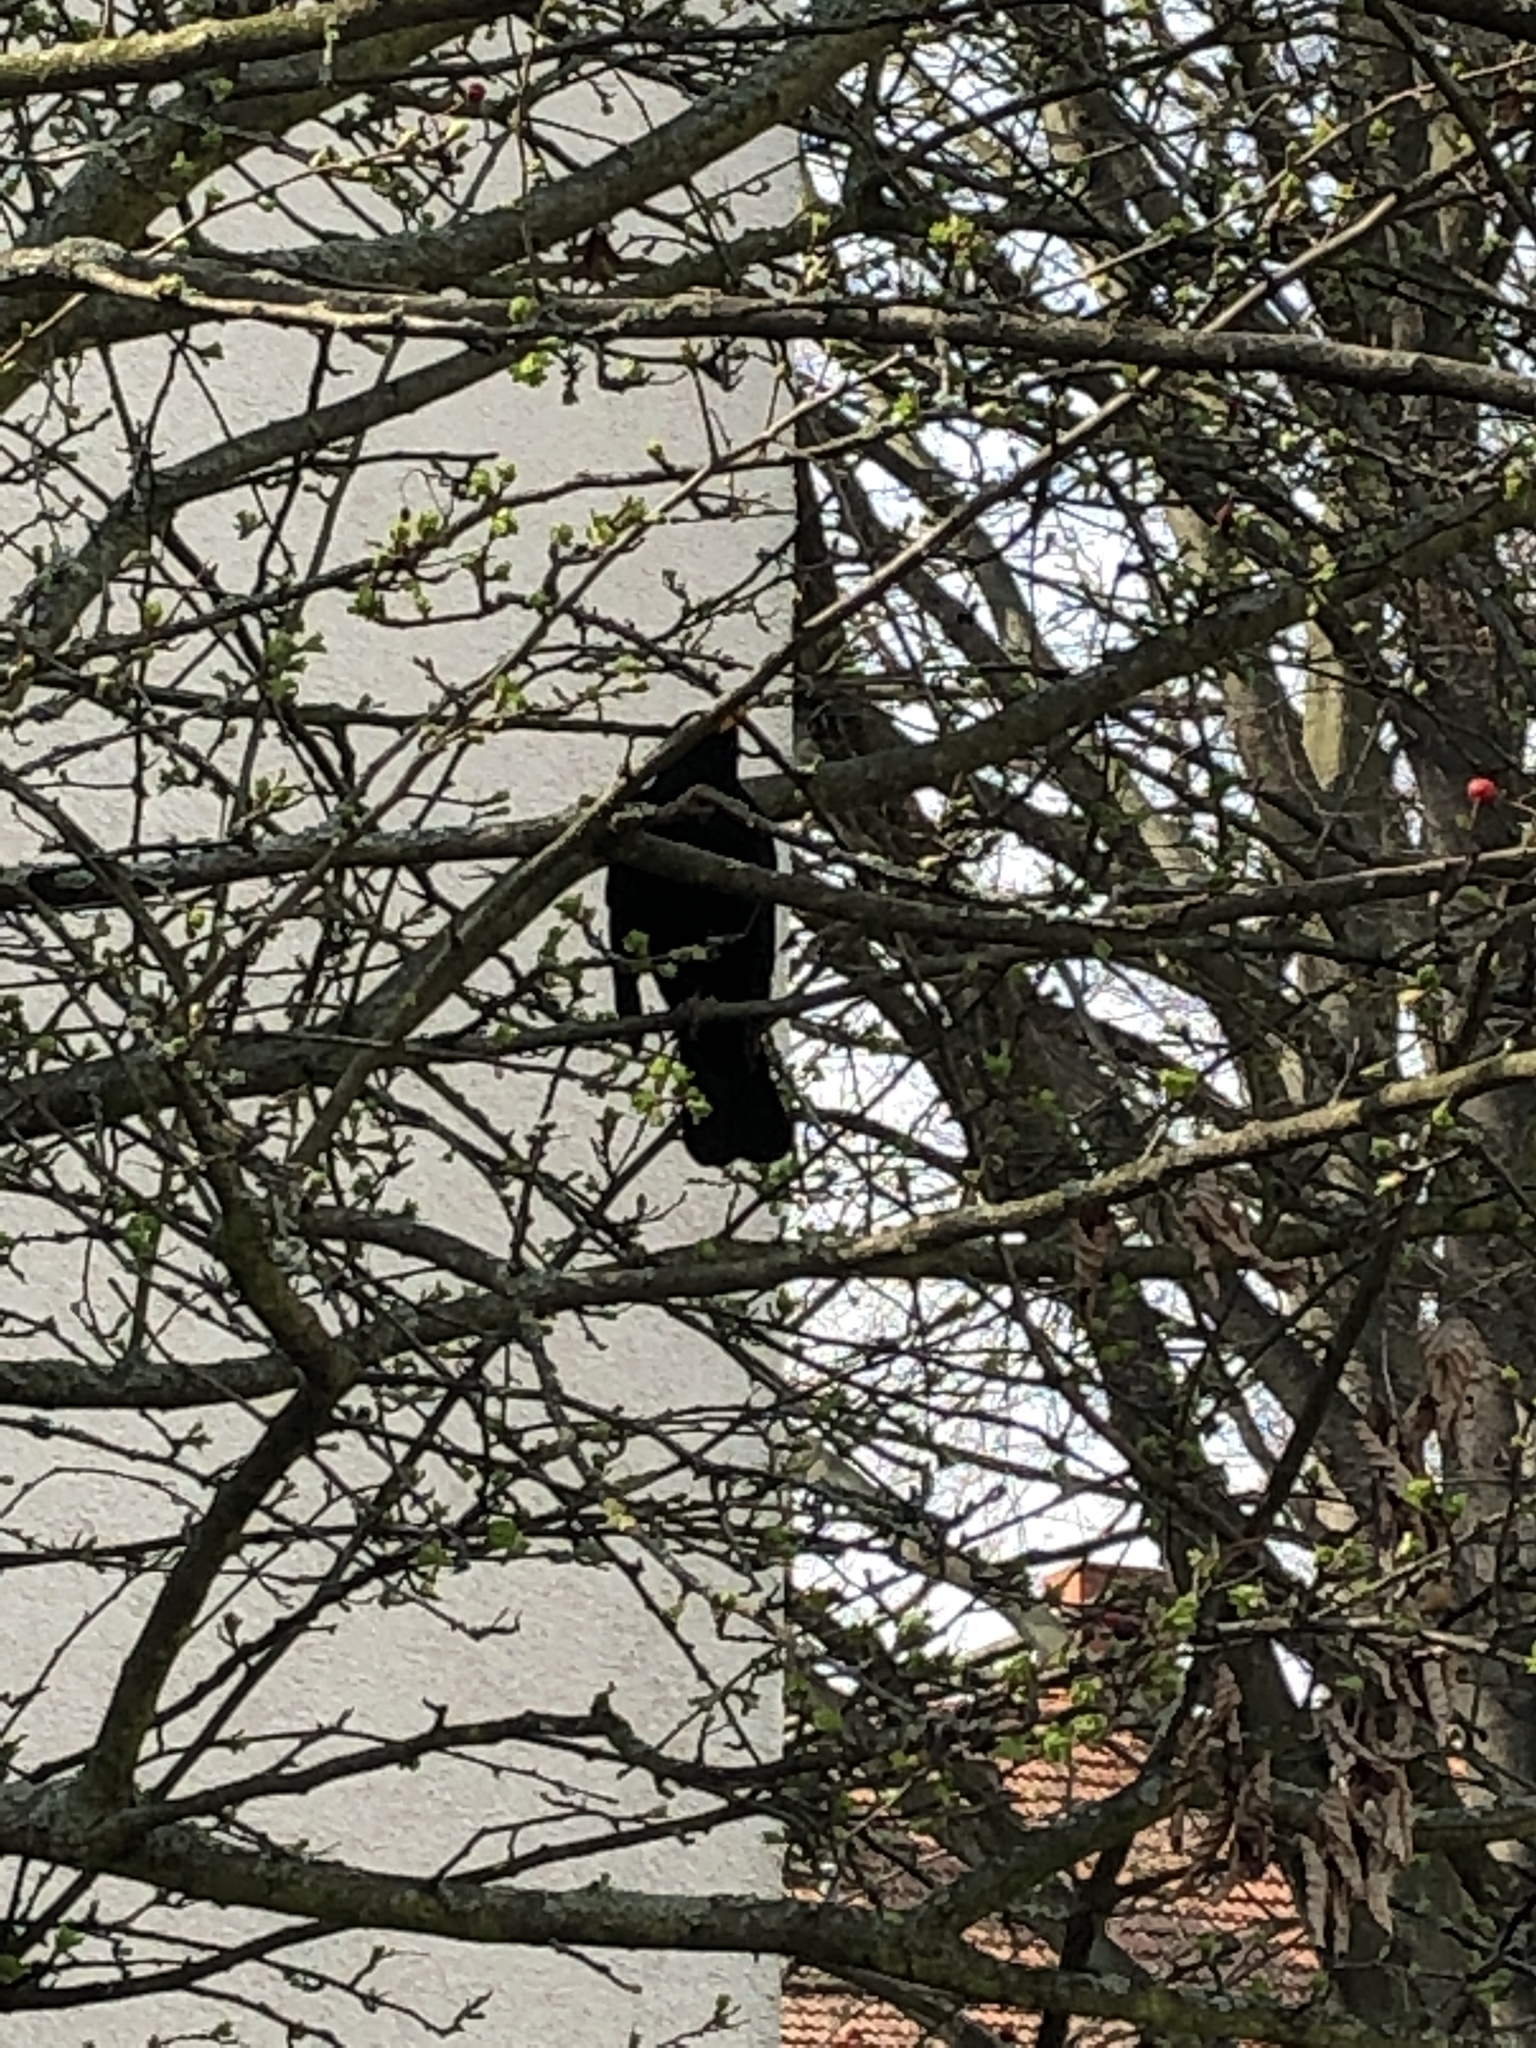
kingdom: Animalia
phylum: Chordata
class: Aves
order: Passeriformes
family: Turdidae
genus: Turdus
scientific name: Turdus merula
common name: Common blackbird
